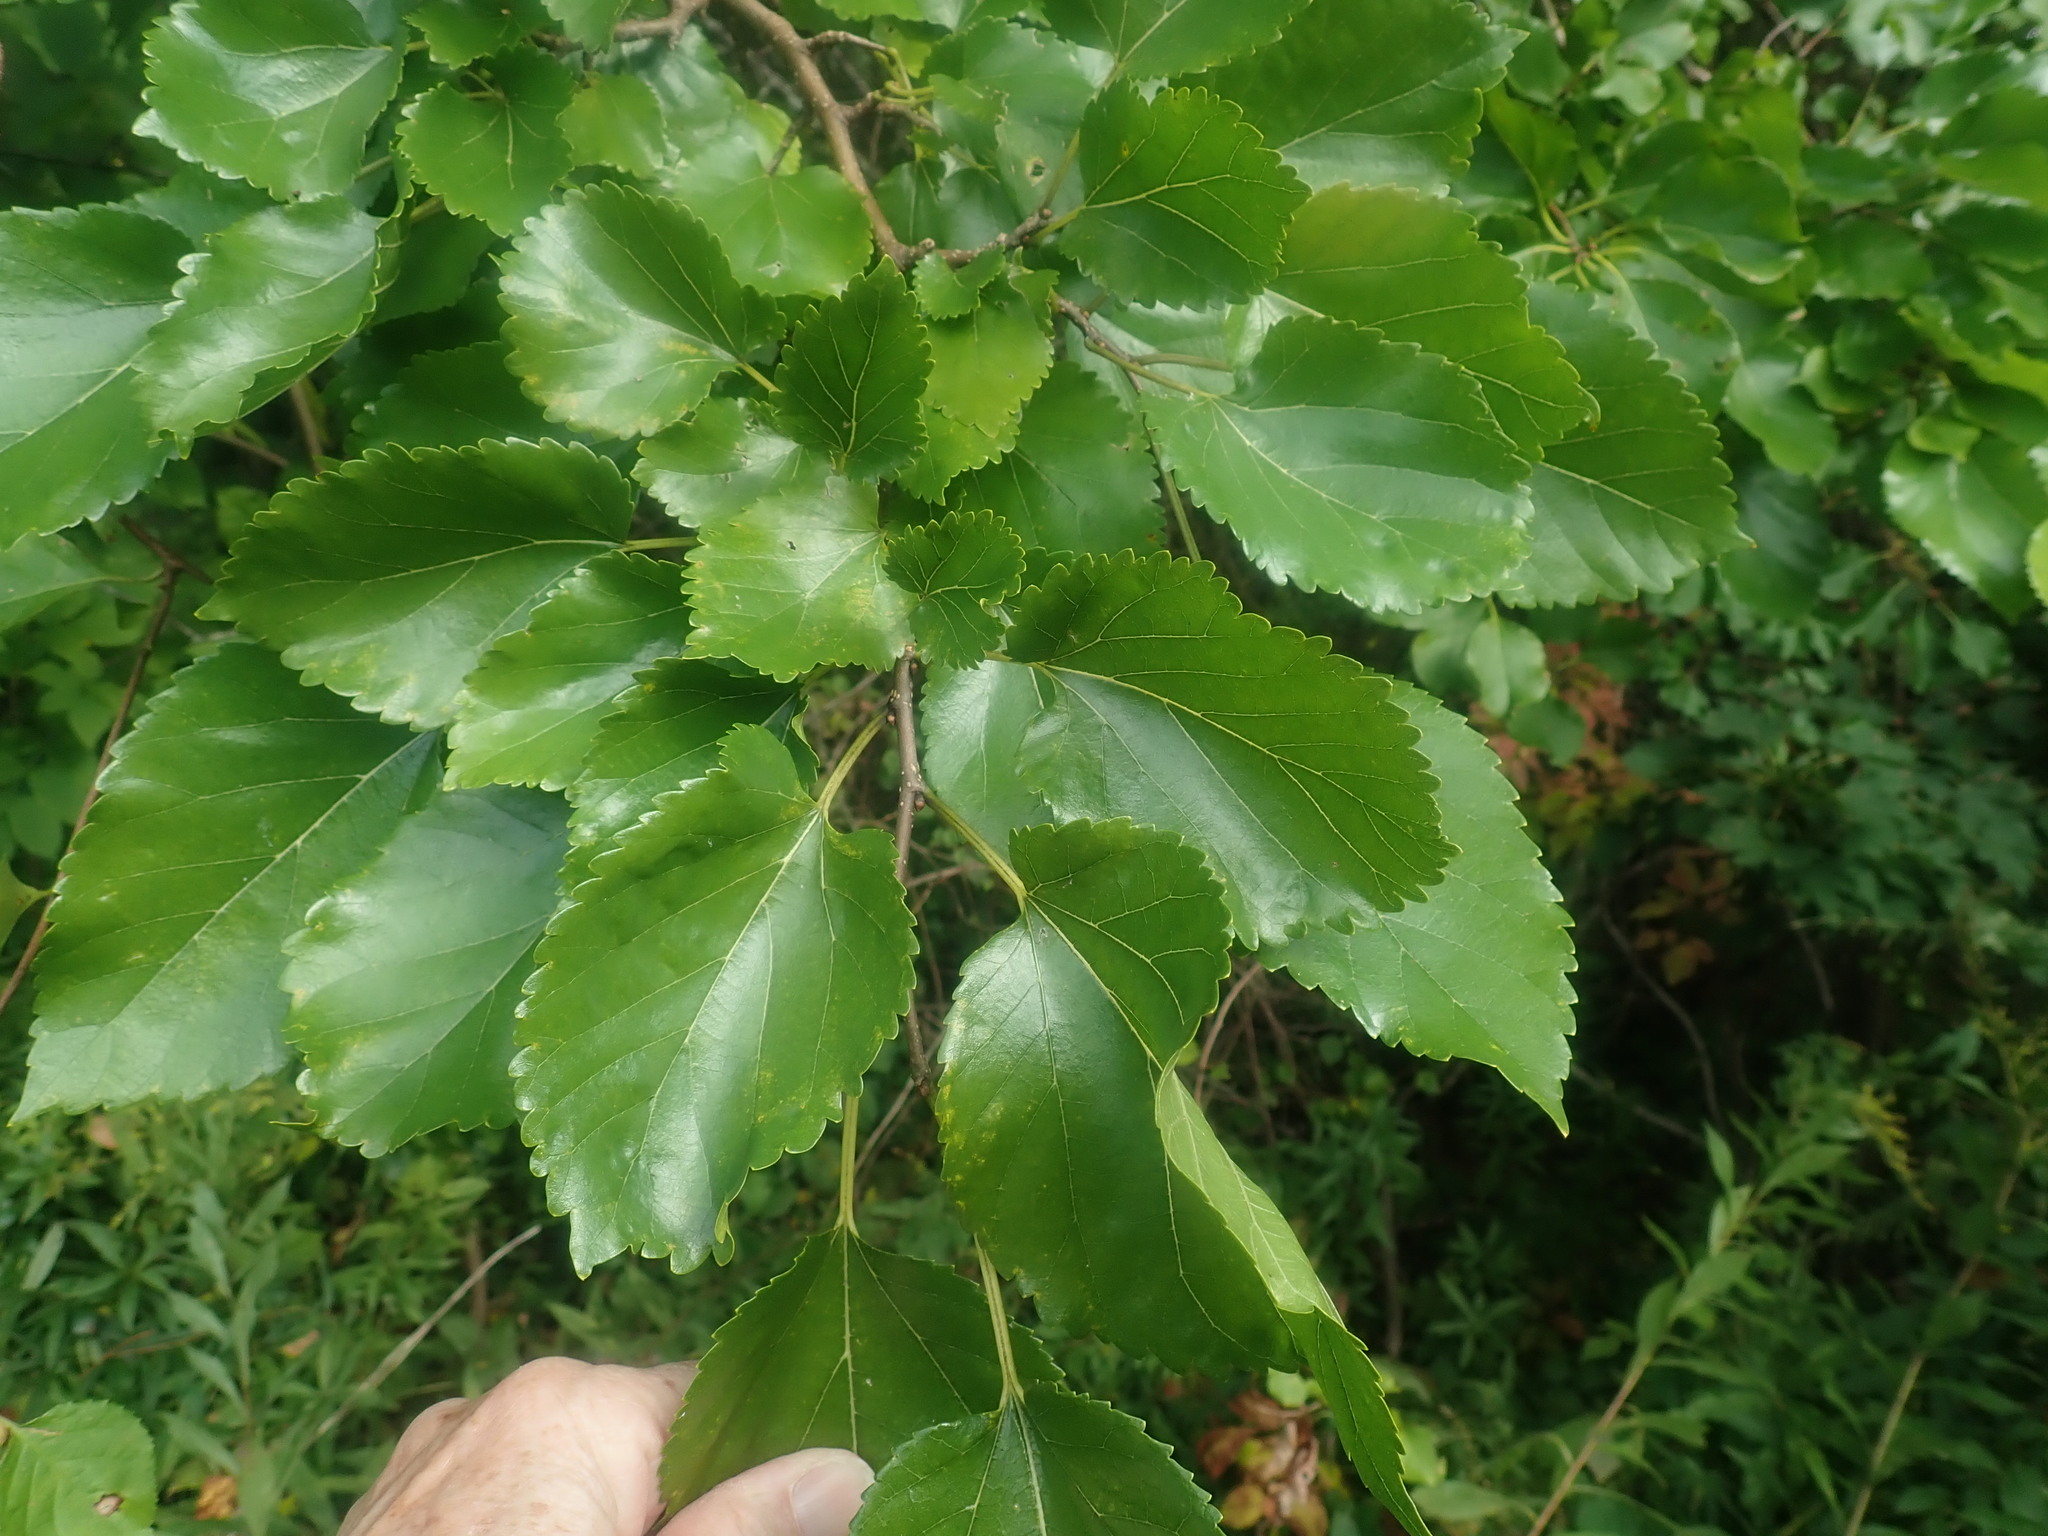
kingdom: Plantae
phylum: Tracheophyta
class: Magnoliopsida
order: Rosales
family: Moraceae
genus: Morus
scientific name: Morus alba
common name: White mulberry
